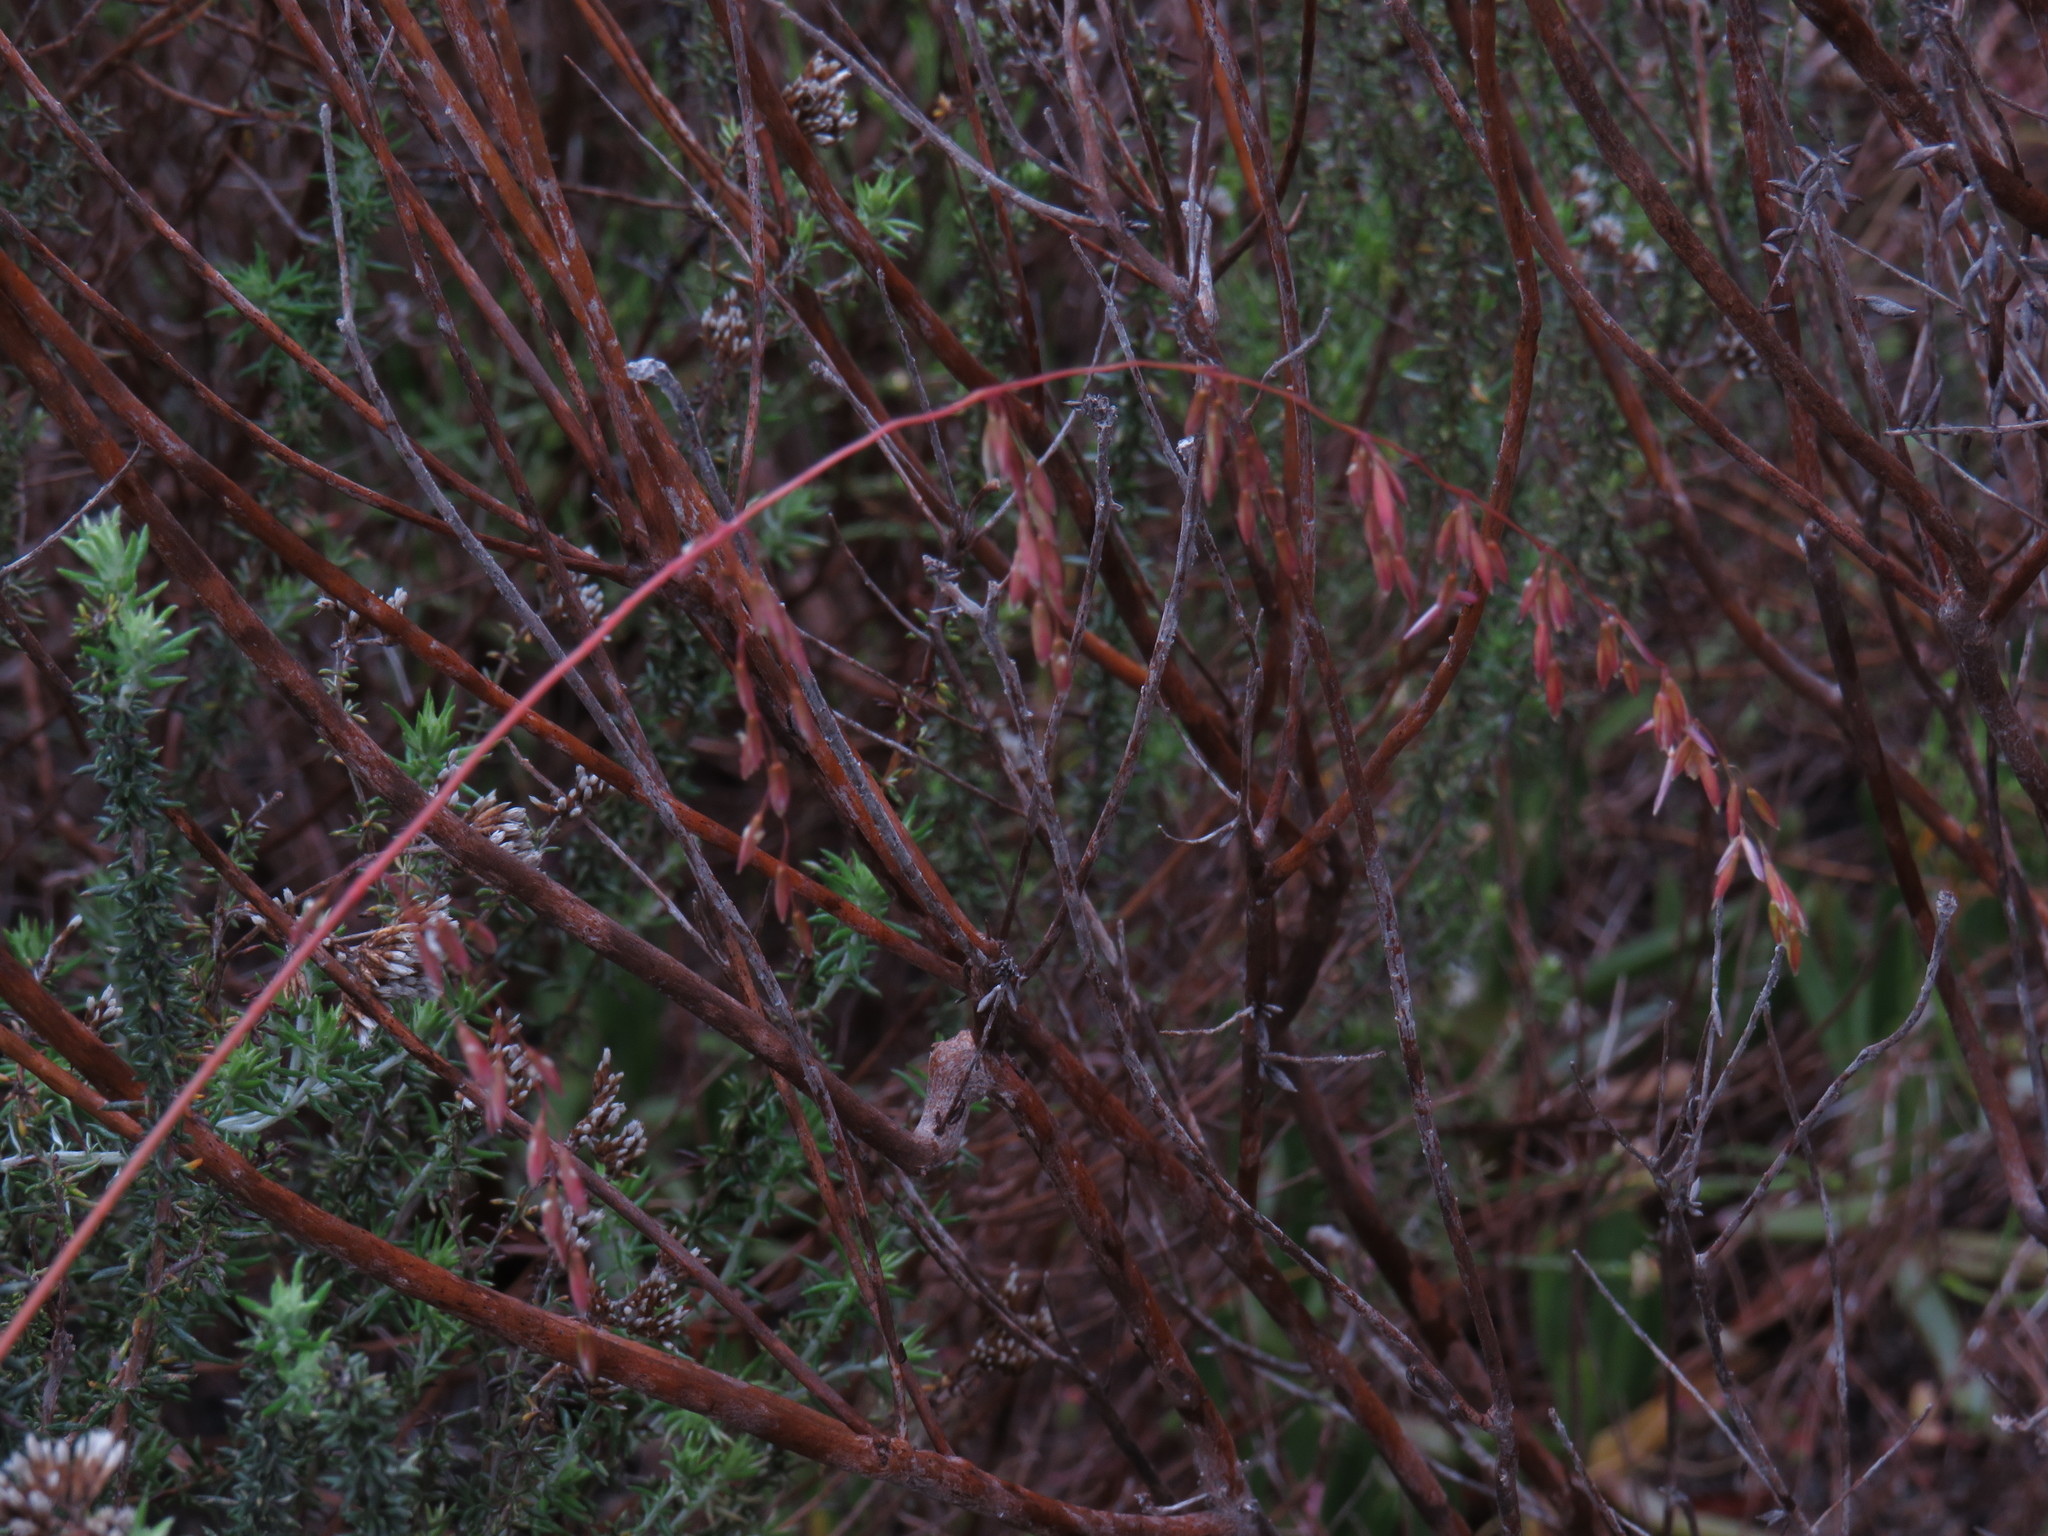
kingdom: Plantae
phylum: Tracheophyta
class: Liliopsida
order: Poales
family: Poaceae
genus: Ehrharta
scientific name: Ehrharta calycina
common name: Perennial veldtgrass
